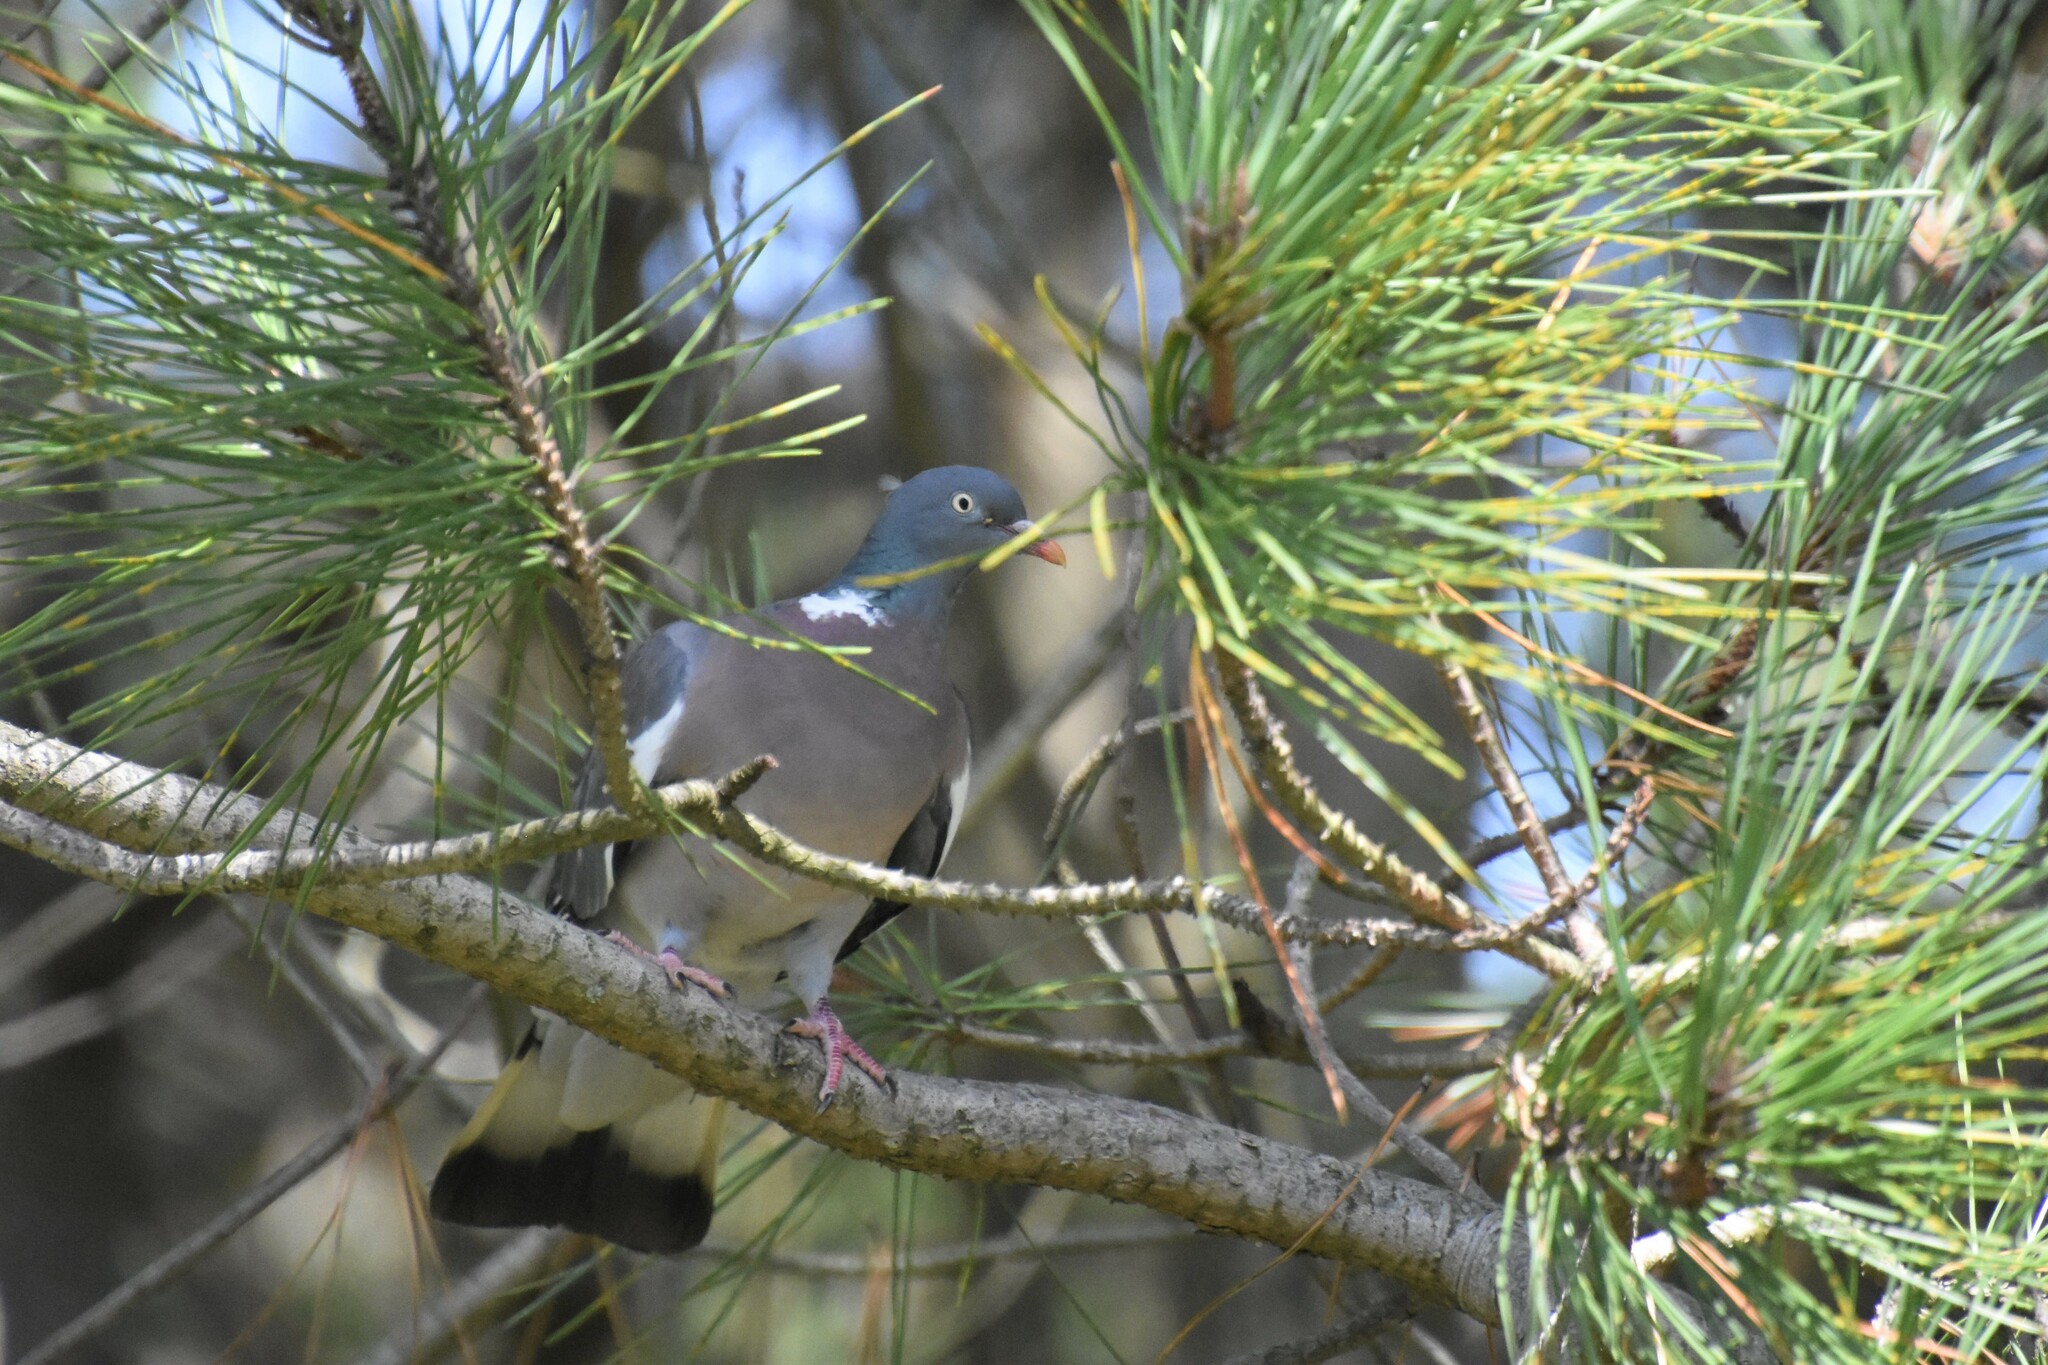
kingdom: Animalia
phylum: Chordata
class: Aves
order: Columbiformes
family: Columbidae
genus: Columba
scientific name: Columba palumbus
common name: Common wood pigeon
